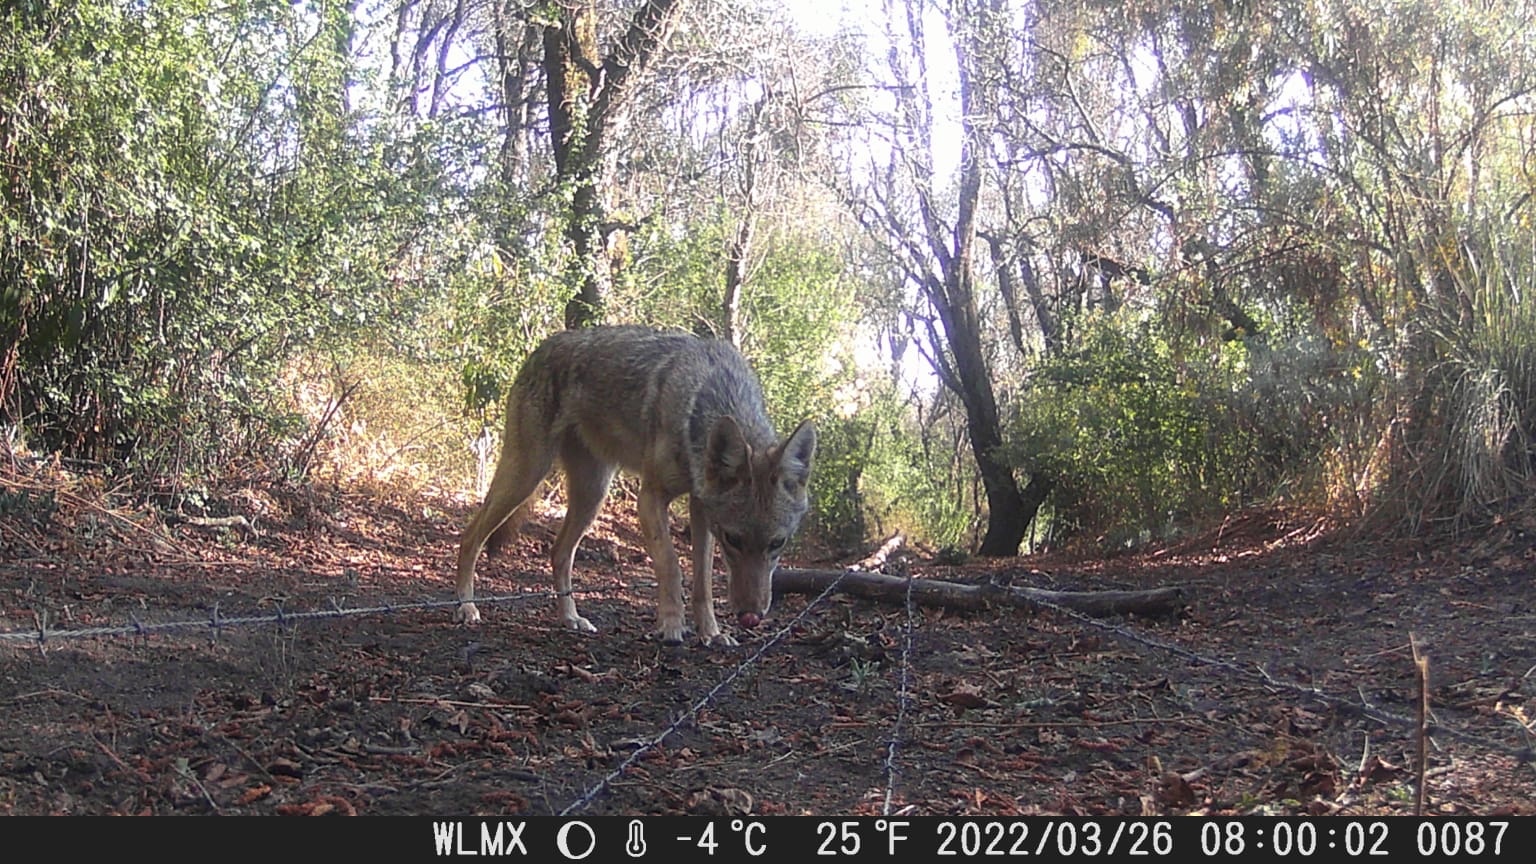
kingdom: Animalia
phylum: Chordata
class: Mammalia
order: Carnivora
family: Canidae
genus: Canis
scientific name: Canis latrans
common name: Coyote
